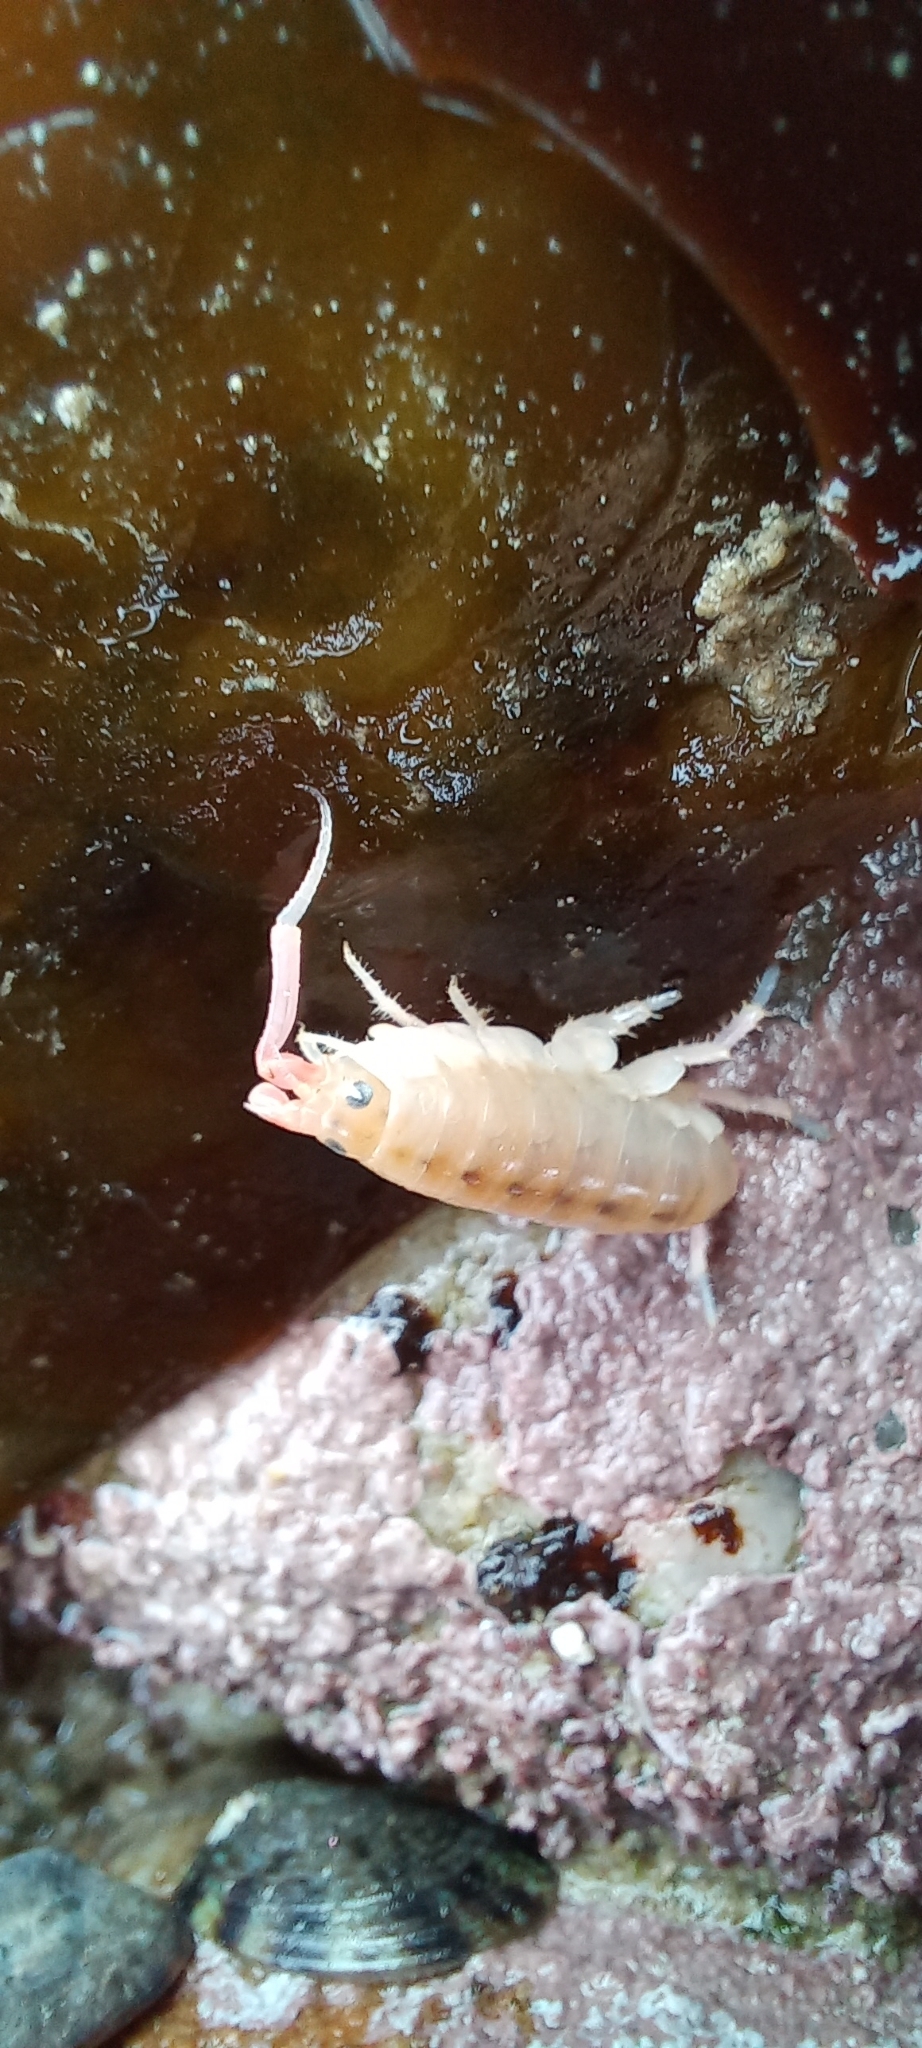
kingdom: Animalia
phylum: Arthropoda
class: Malacostraca
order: Amphipoda
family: Talitridae
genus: Capeorchestia
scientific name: Capeorchestia capensis
